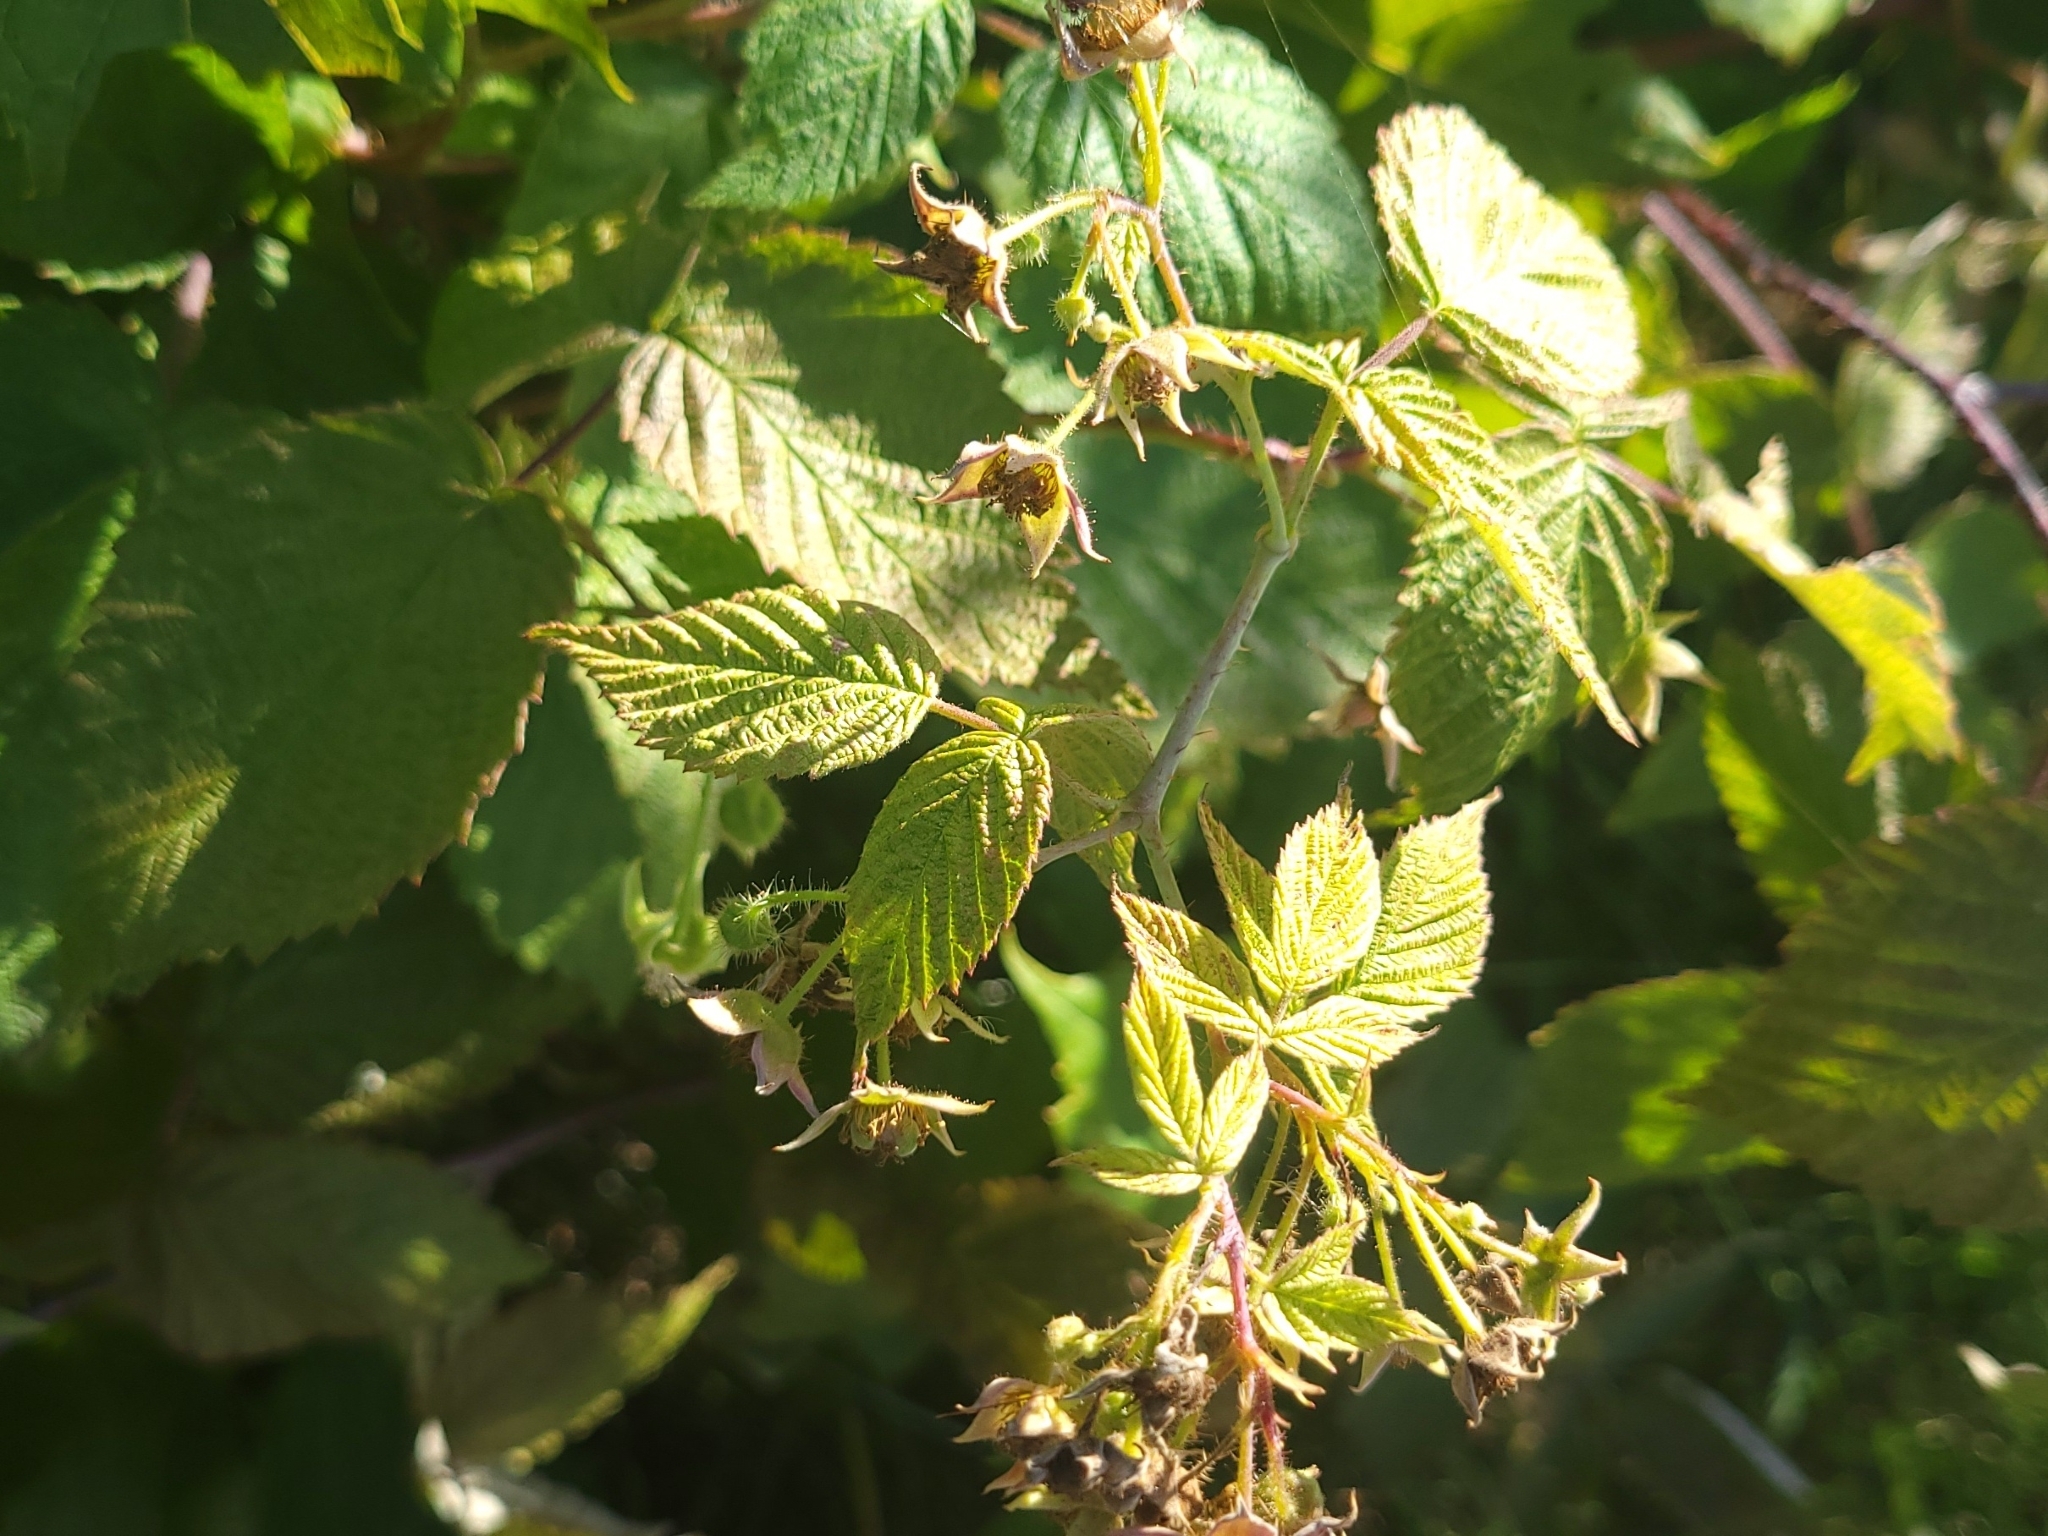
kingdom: Plantae
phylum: Tracheophyta
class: Magnoliopsida
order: Rosales
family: Rosaceae
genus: Rubus
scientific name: Rubus idaeus
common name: Raspberry
